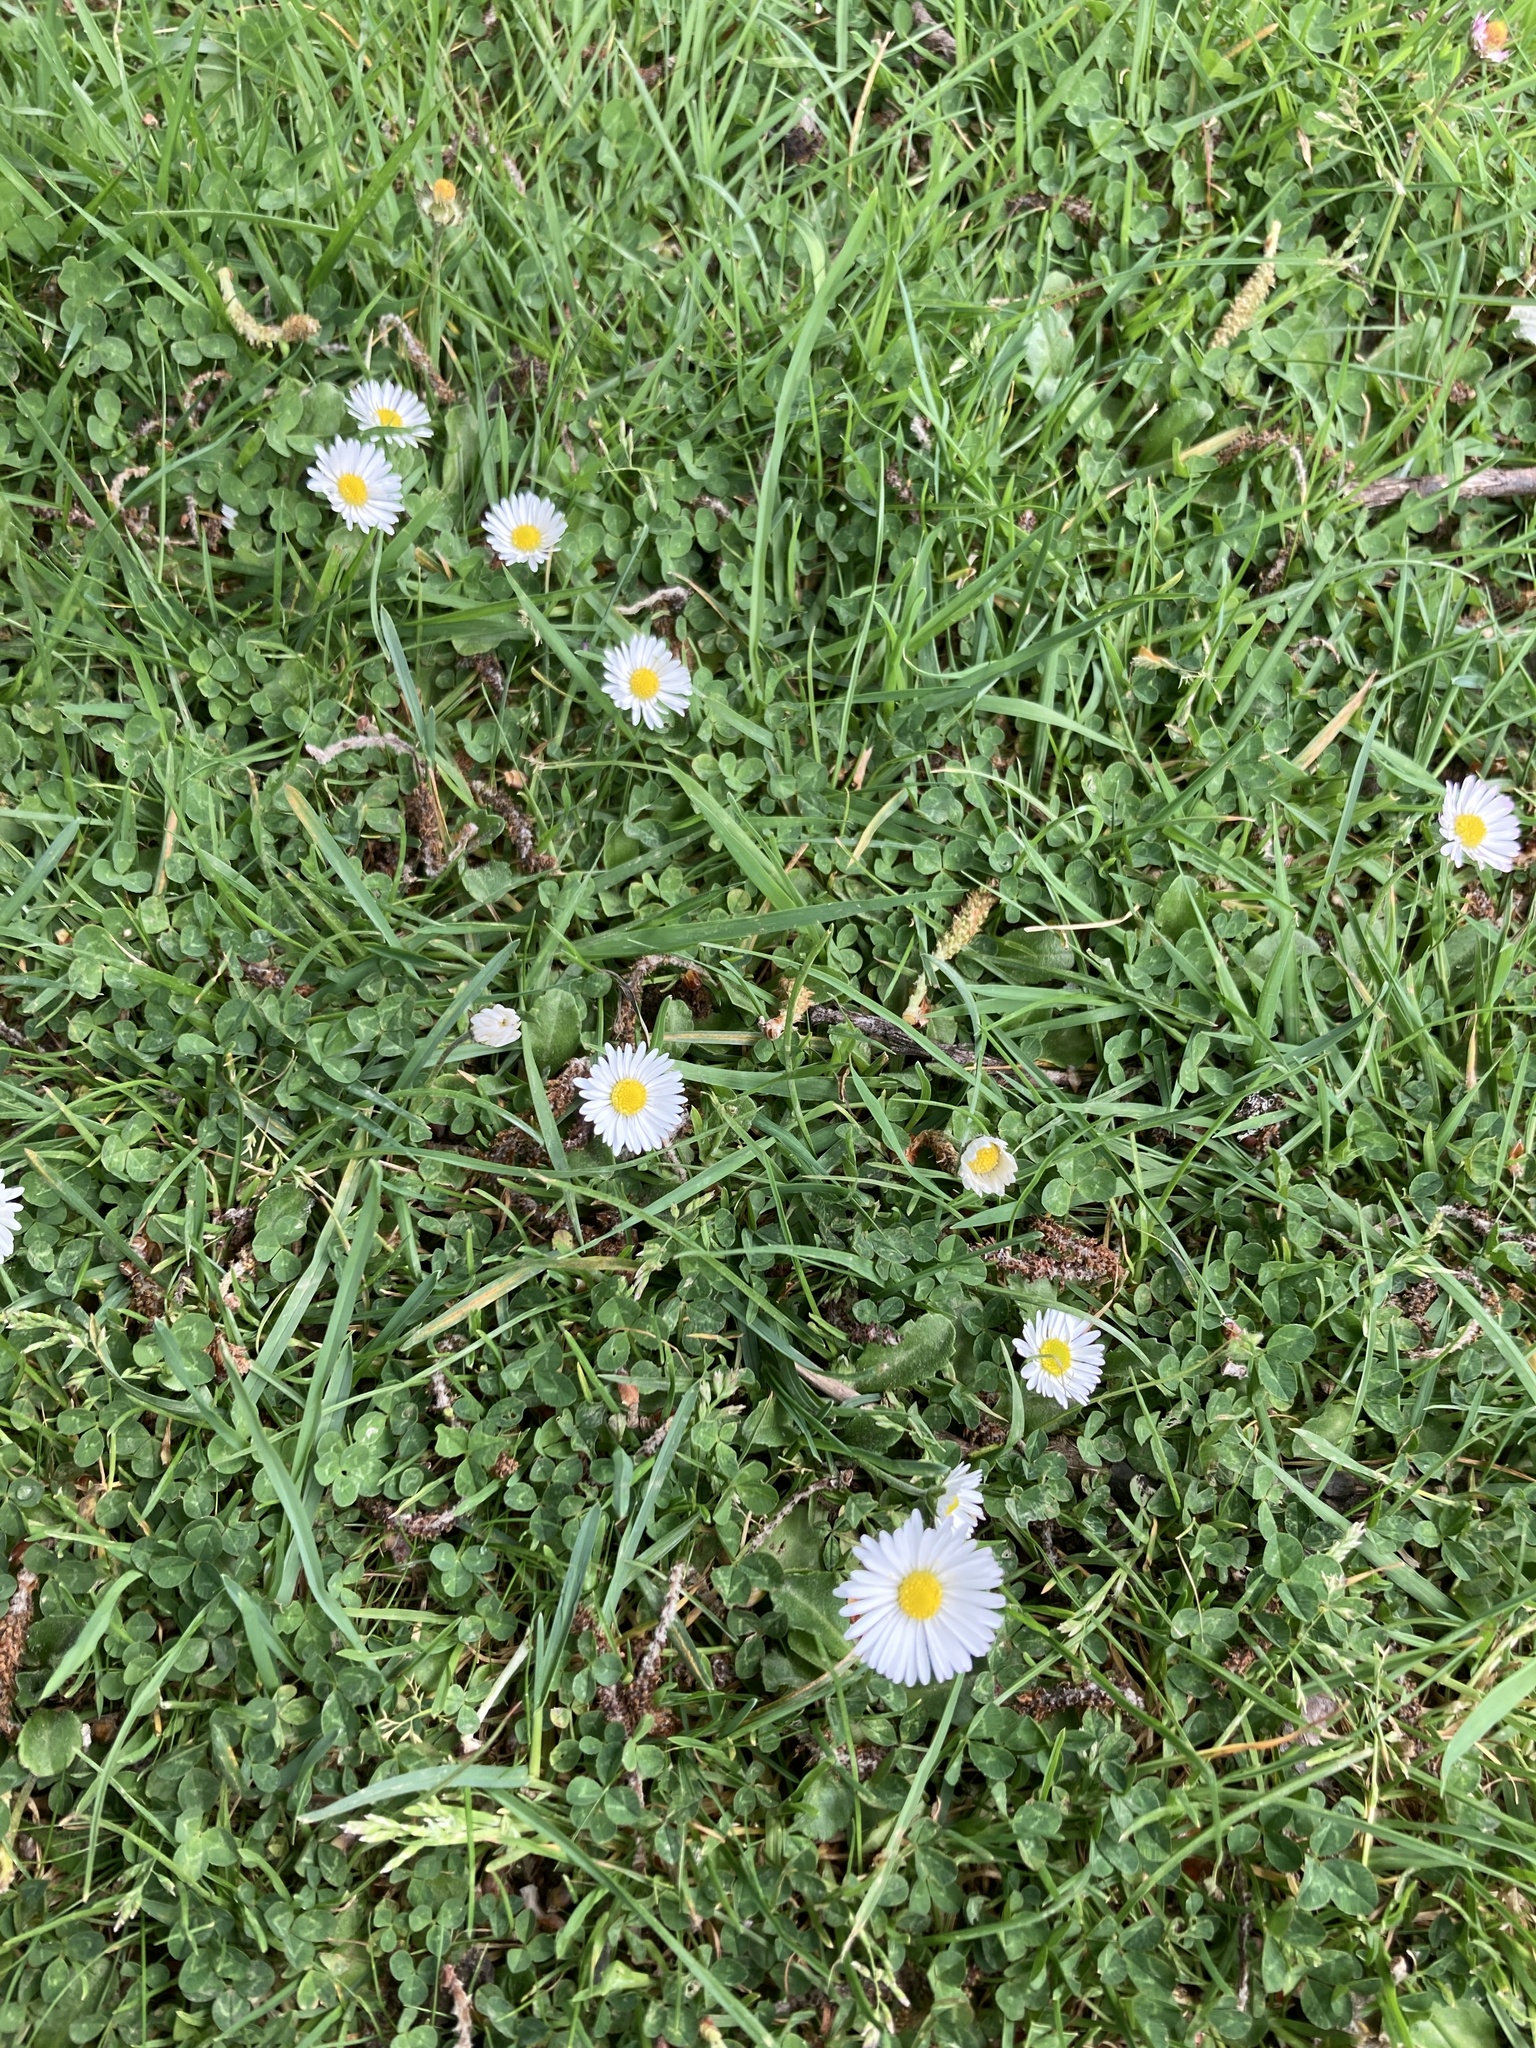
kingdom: Plantae
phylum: Tracheophyta
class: Magnoliopsida
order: Asterales
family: Asteraceae
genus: Bellis
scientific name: Bellis perennis
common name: Lawndaisy
